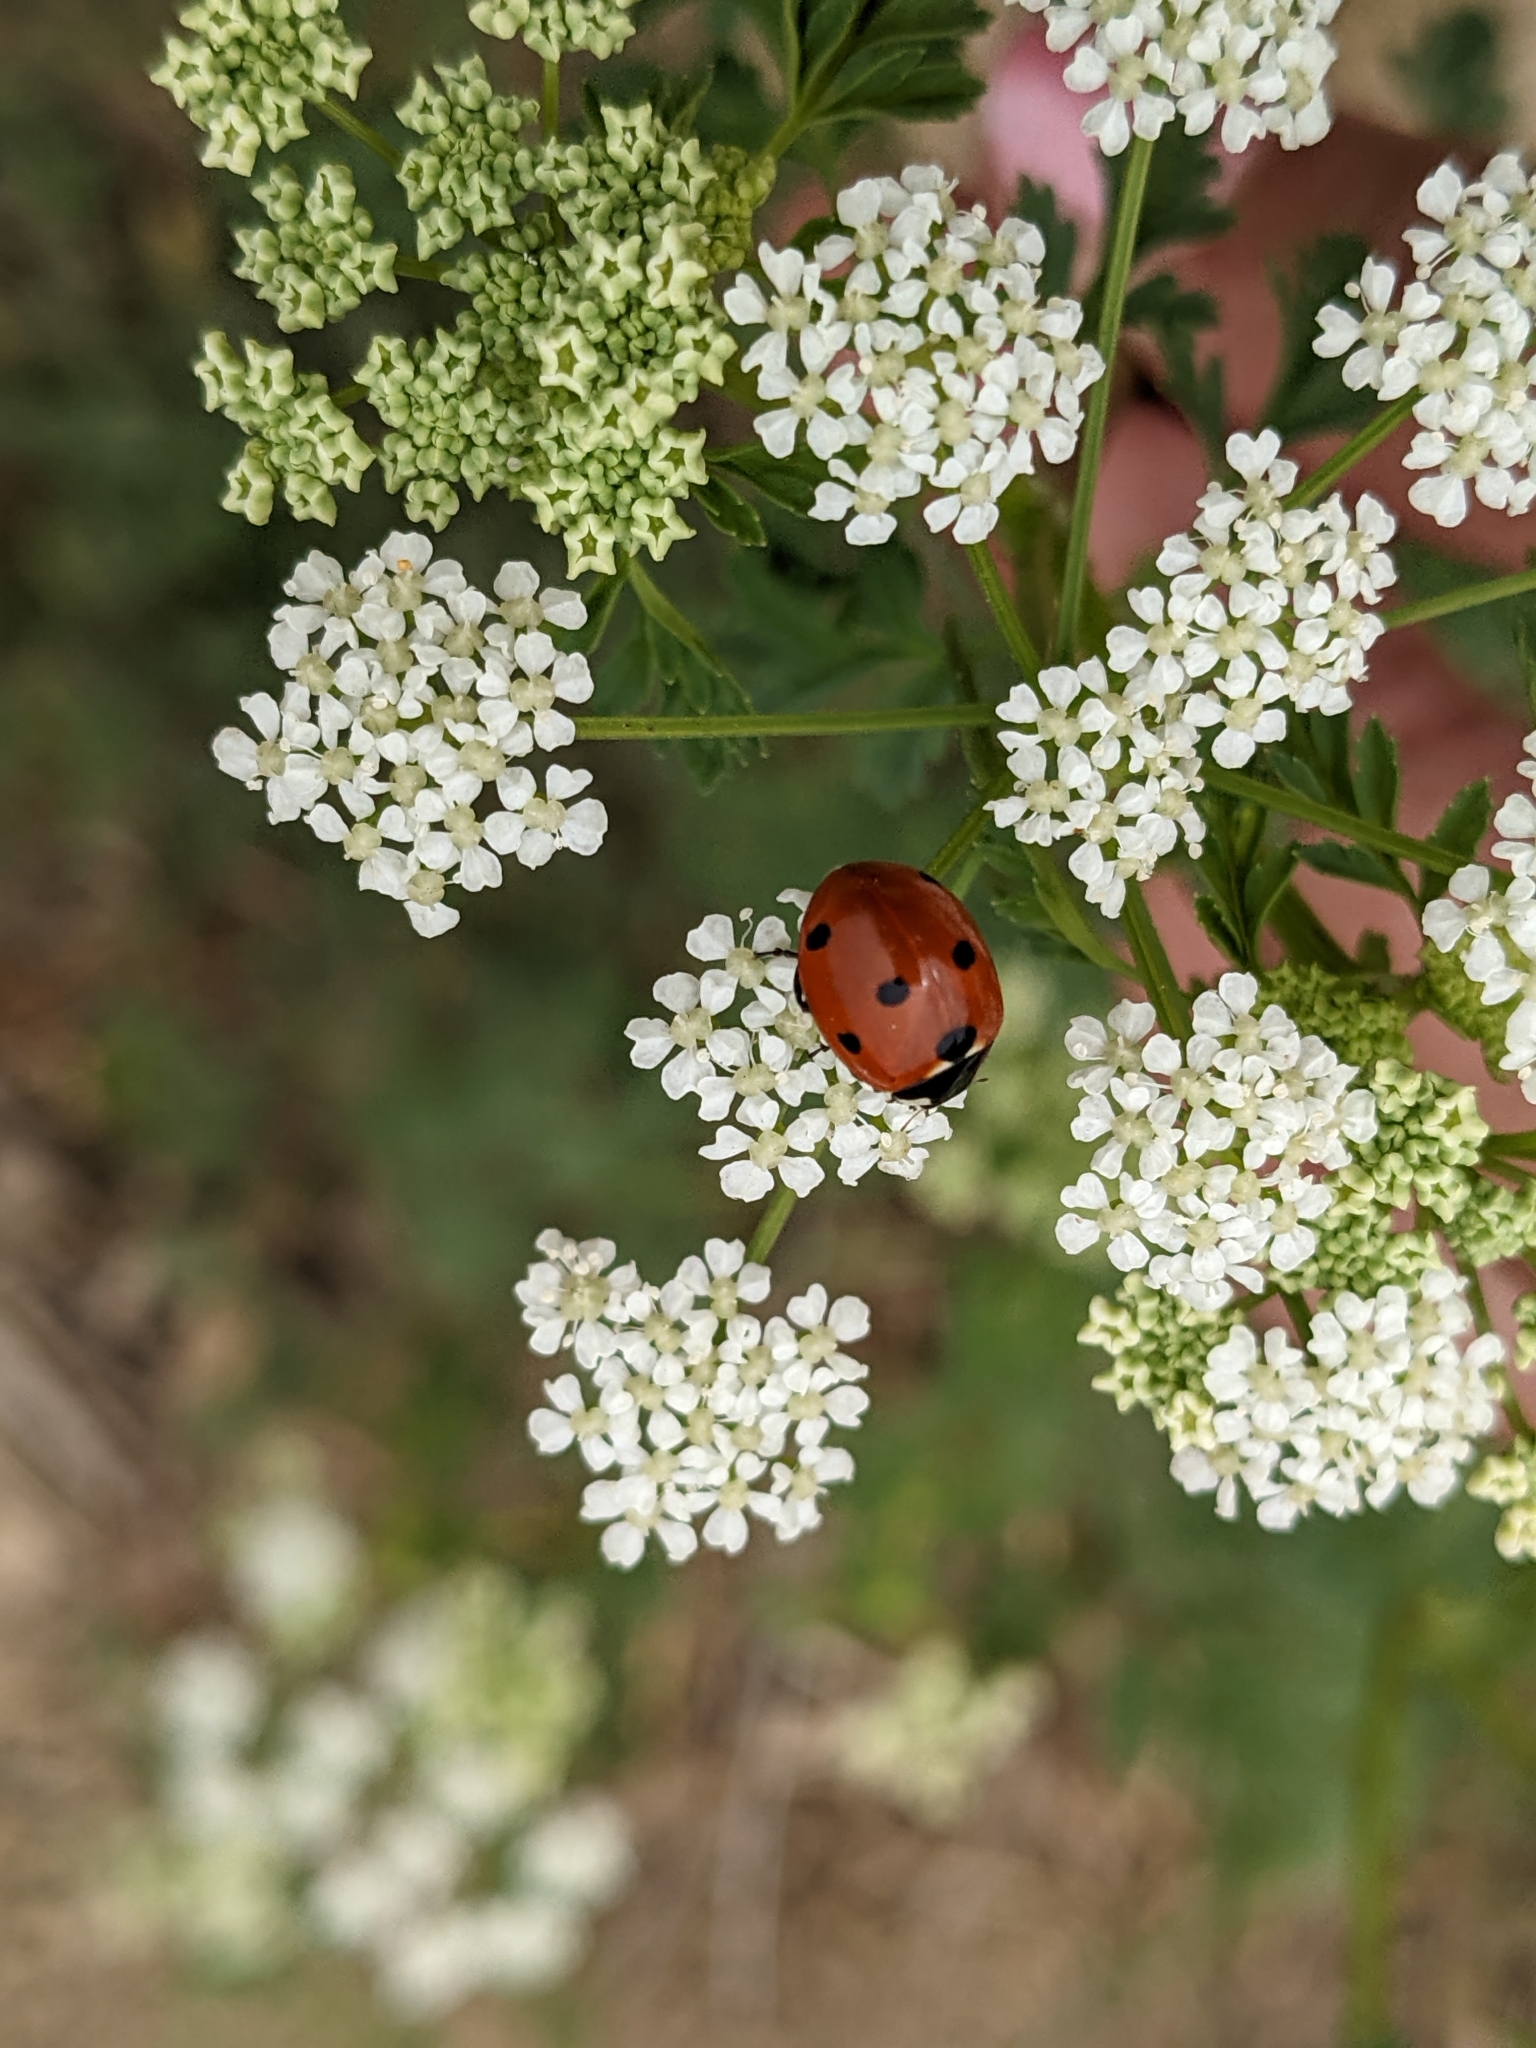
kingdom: Animalia
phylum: Arthropoda
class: Insecta
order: Coleoptera
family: Coccinellidae
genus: Coccinella
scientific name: Coccinella septempunctata
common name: Sevenspotted lady beetle
